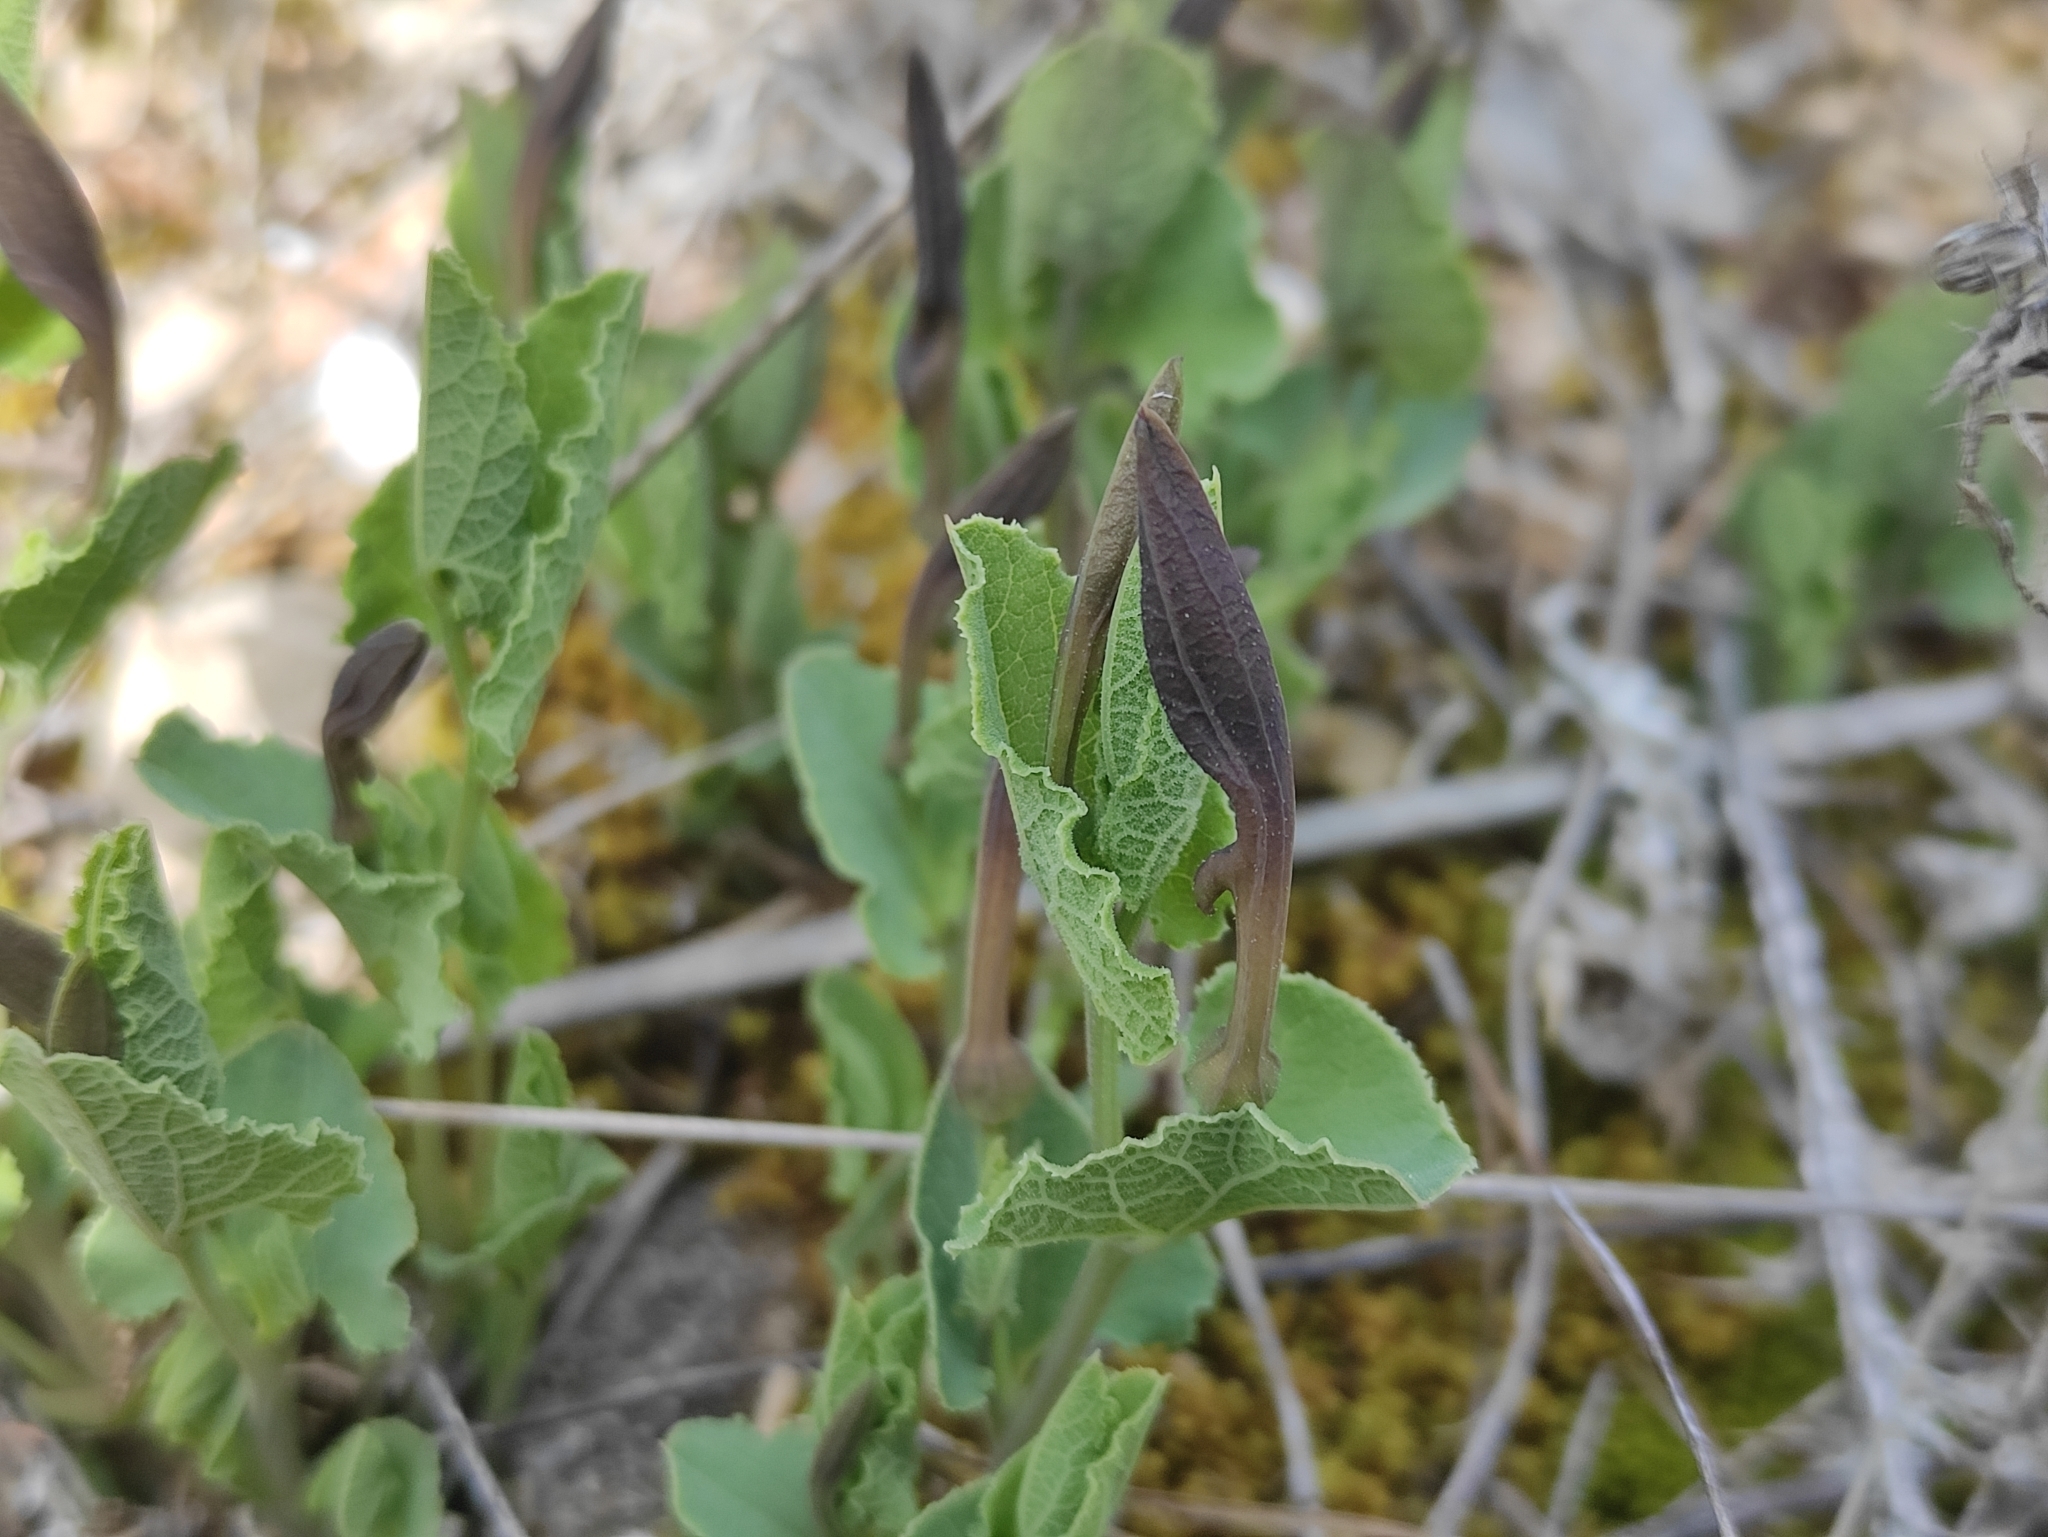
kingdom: Plantae
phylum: Tracheophyta
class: Magnoliopsida
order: Piperales
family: Aristolochiaceae
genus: Aristolochia
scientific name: Aristolochia pistolochia
